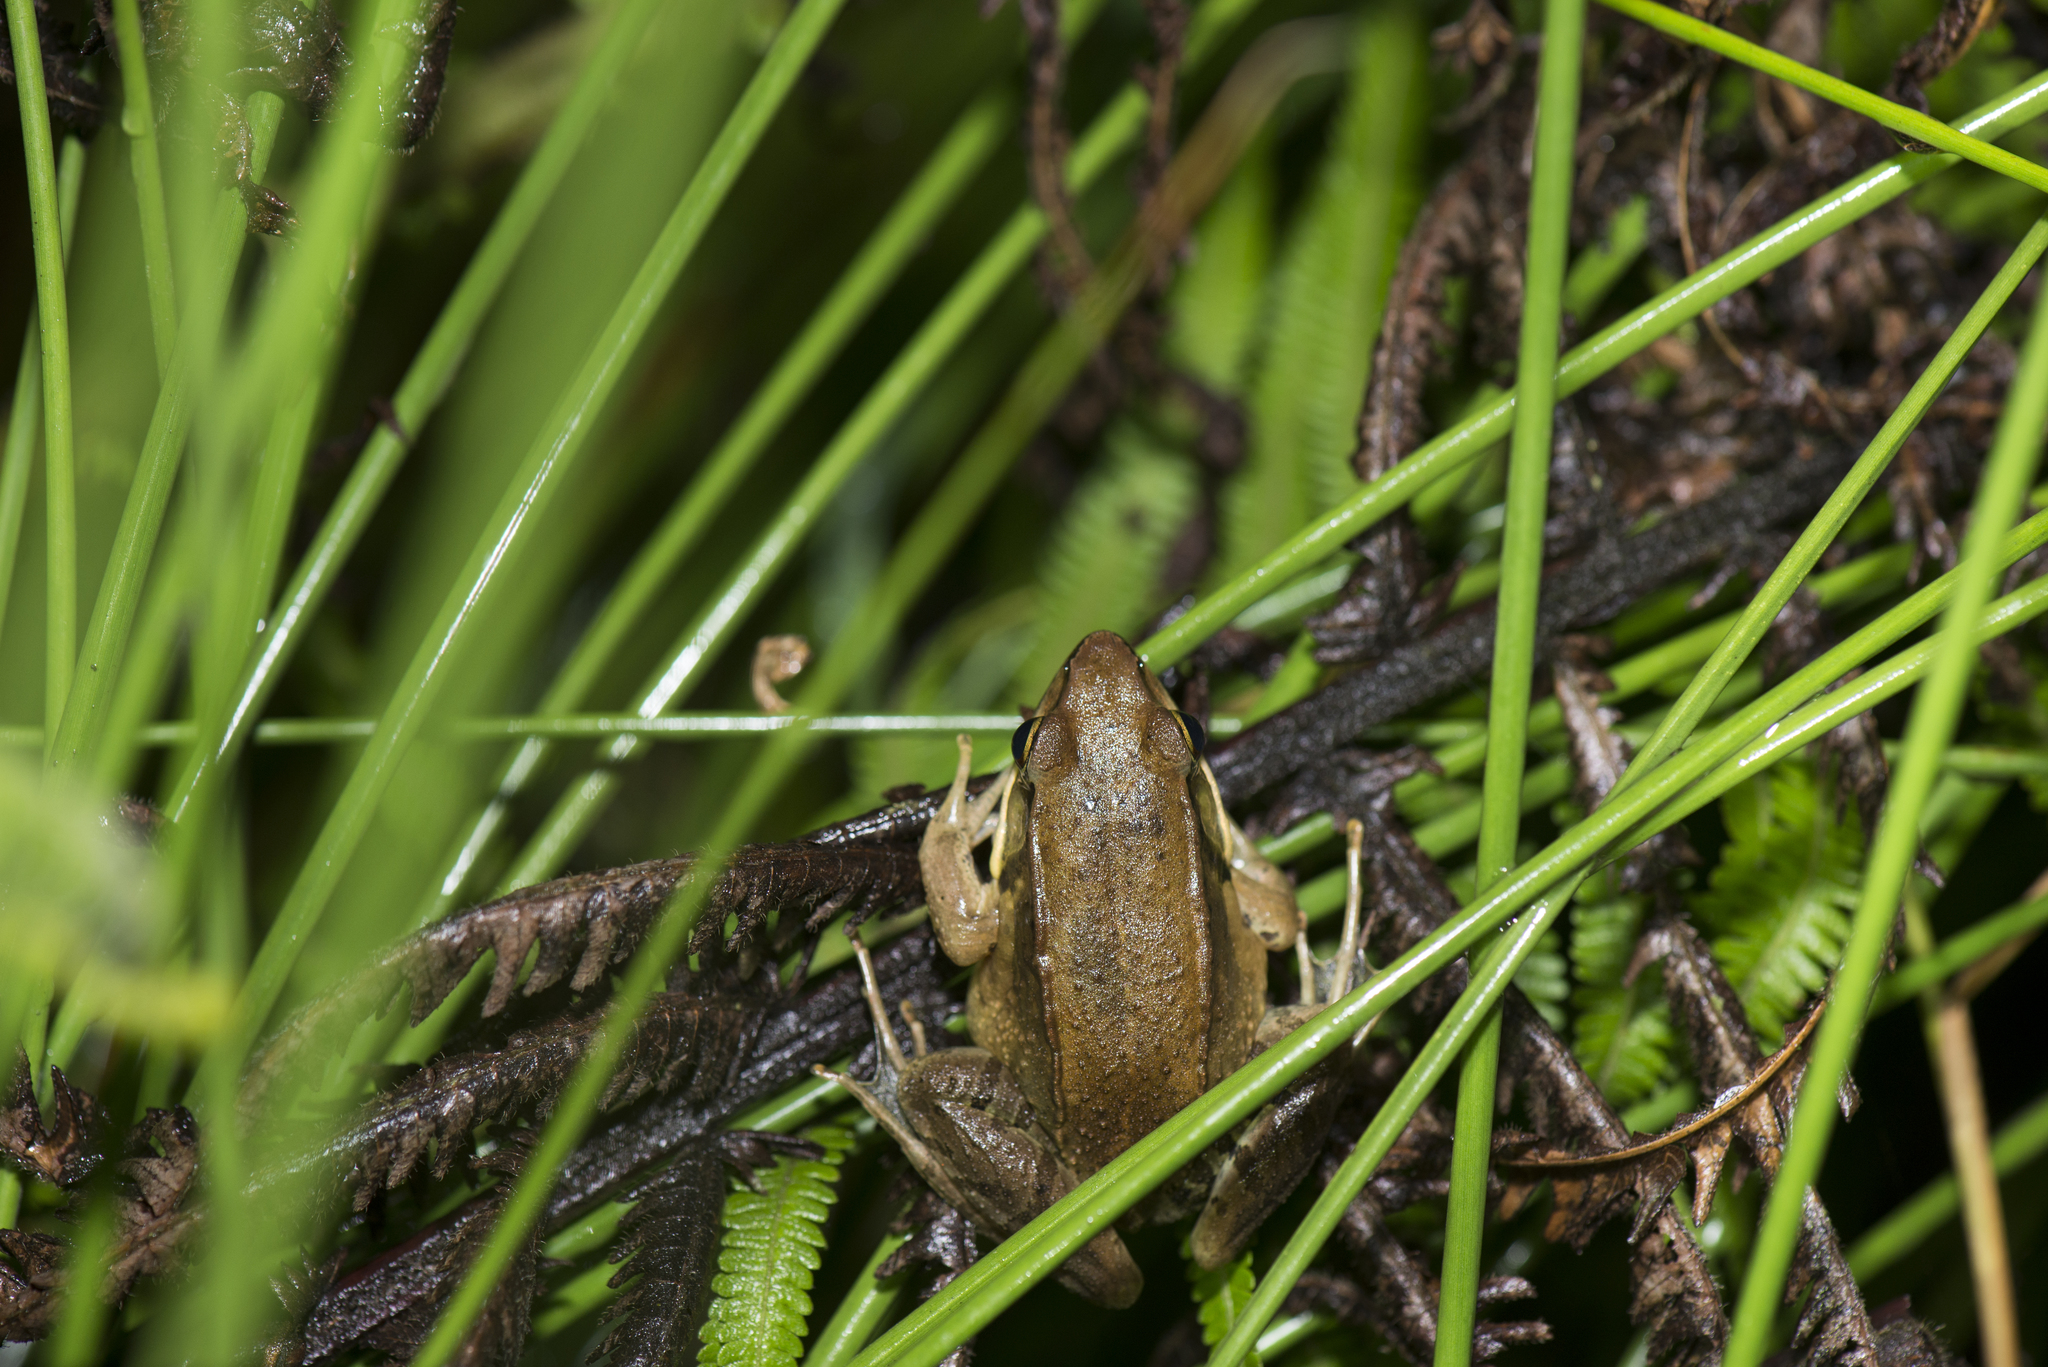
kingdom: Animalia
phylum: Chordata
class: Amphibia
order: Anura
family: Ranidae
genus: Nidirana
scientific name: Nidirana adenopleura
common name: Olive frog
